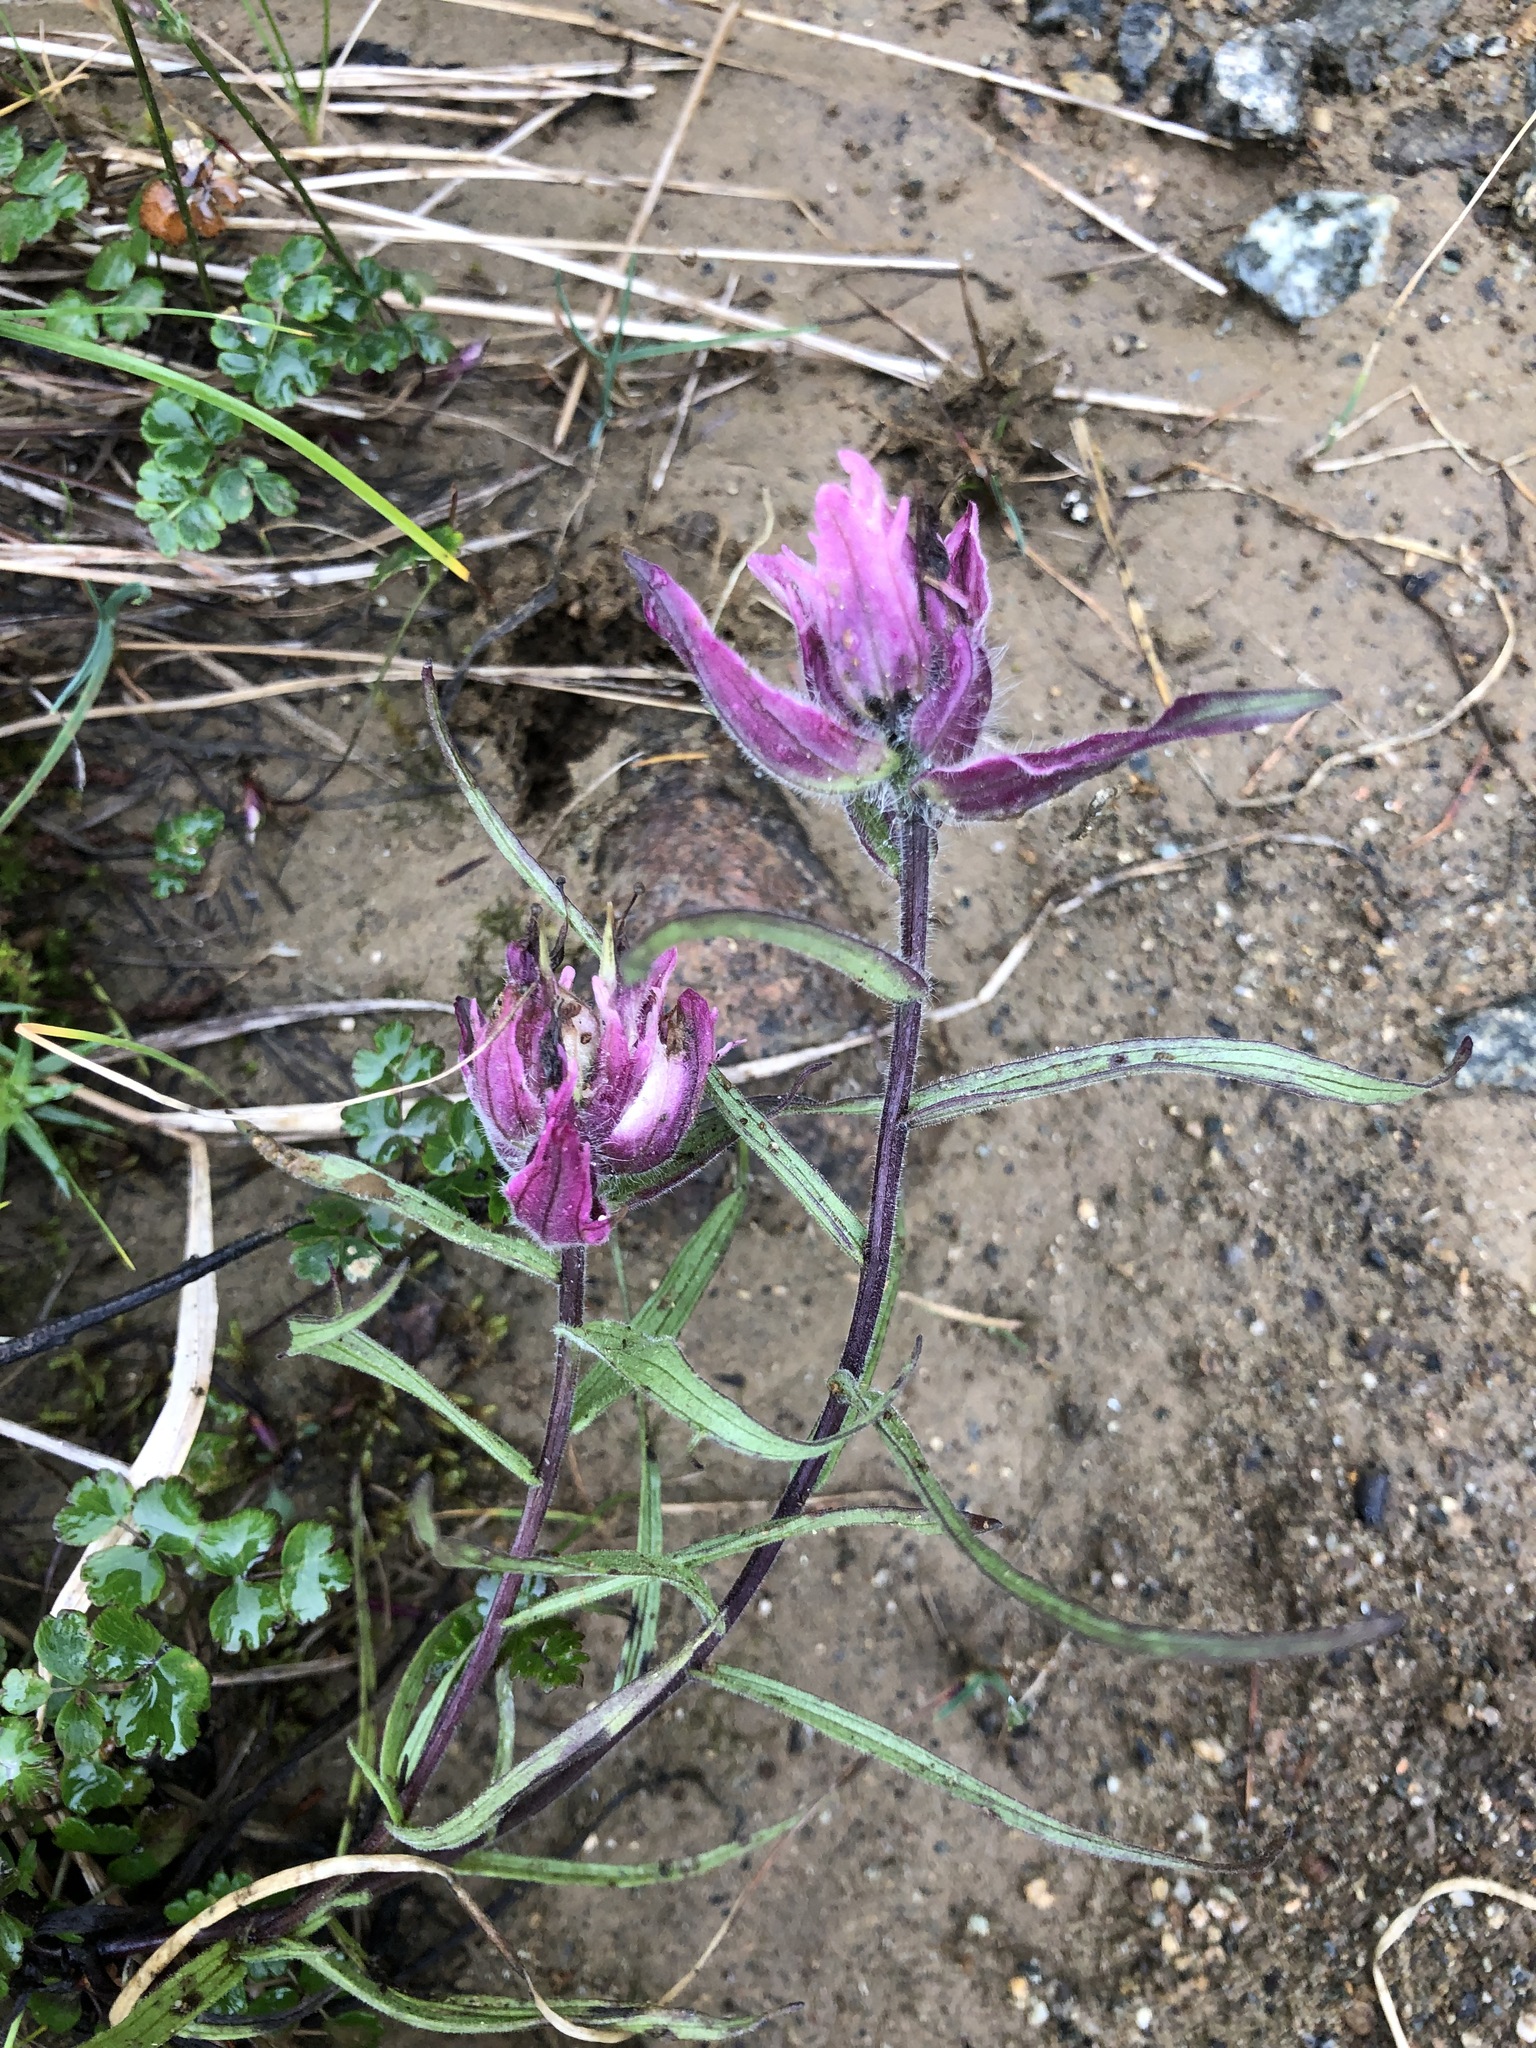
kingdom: Plantae
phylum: Tracheophyta
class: Magnoliopsida
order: Lamiales
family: Orobanchaceae
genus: Castilleja
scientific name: Castilleja arctica
